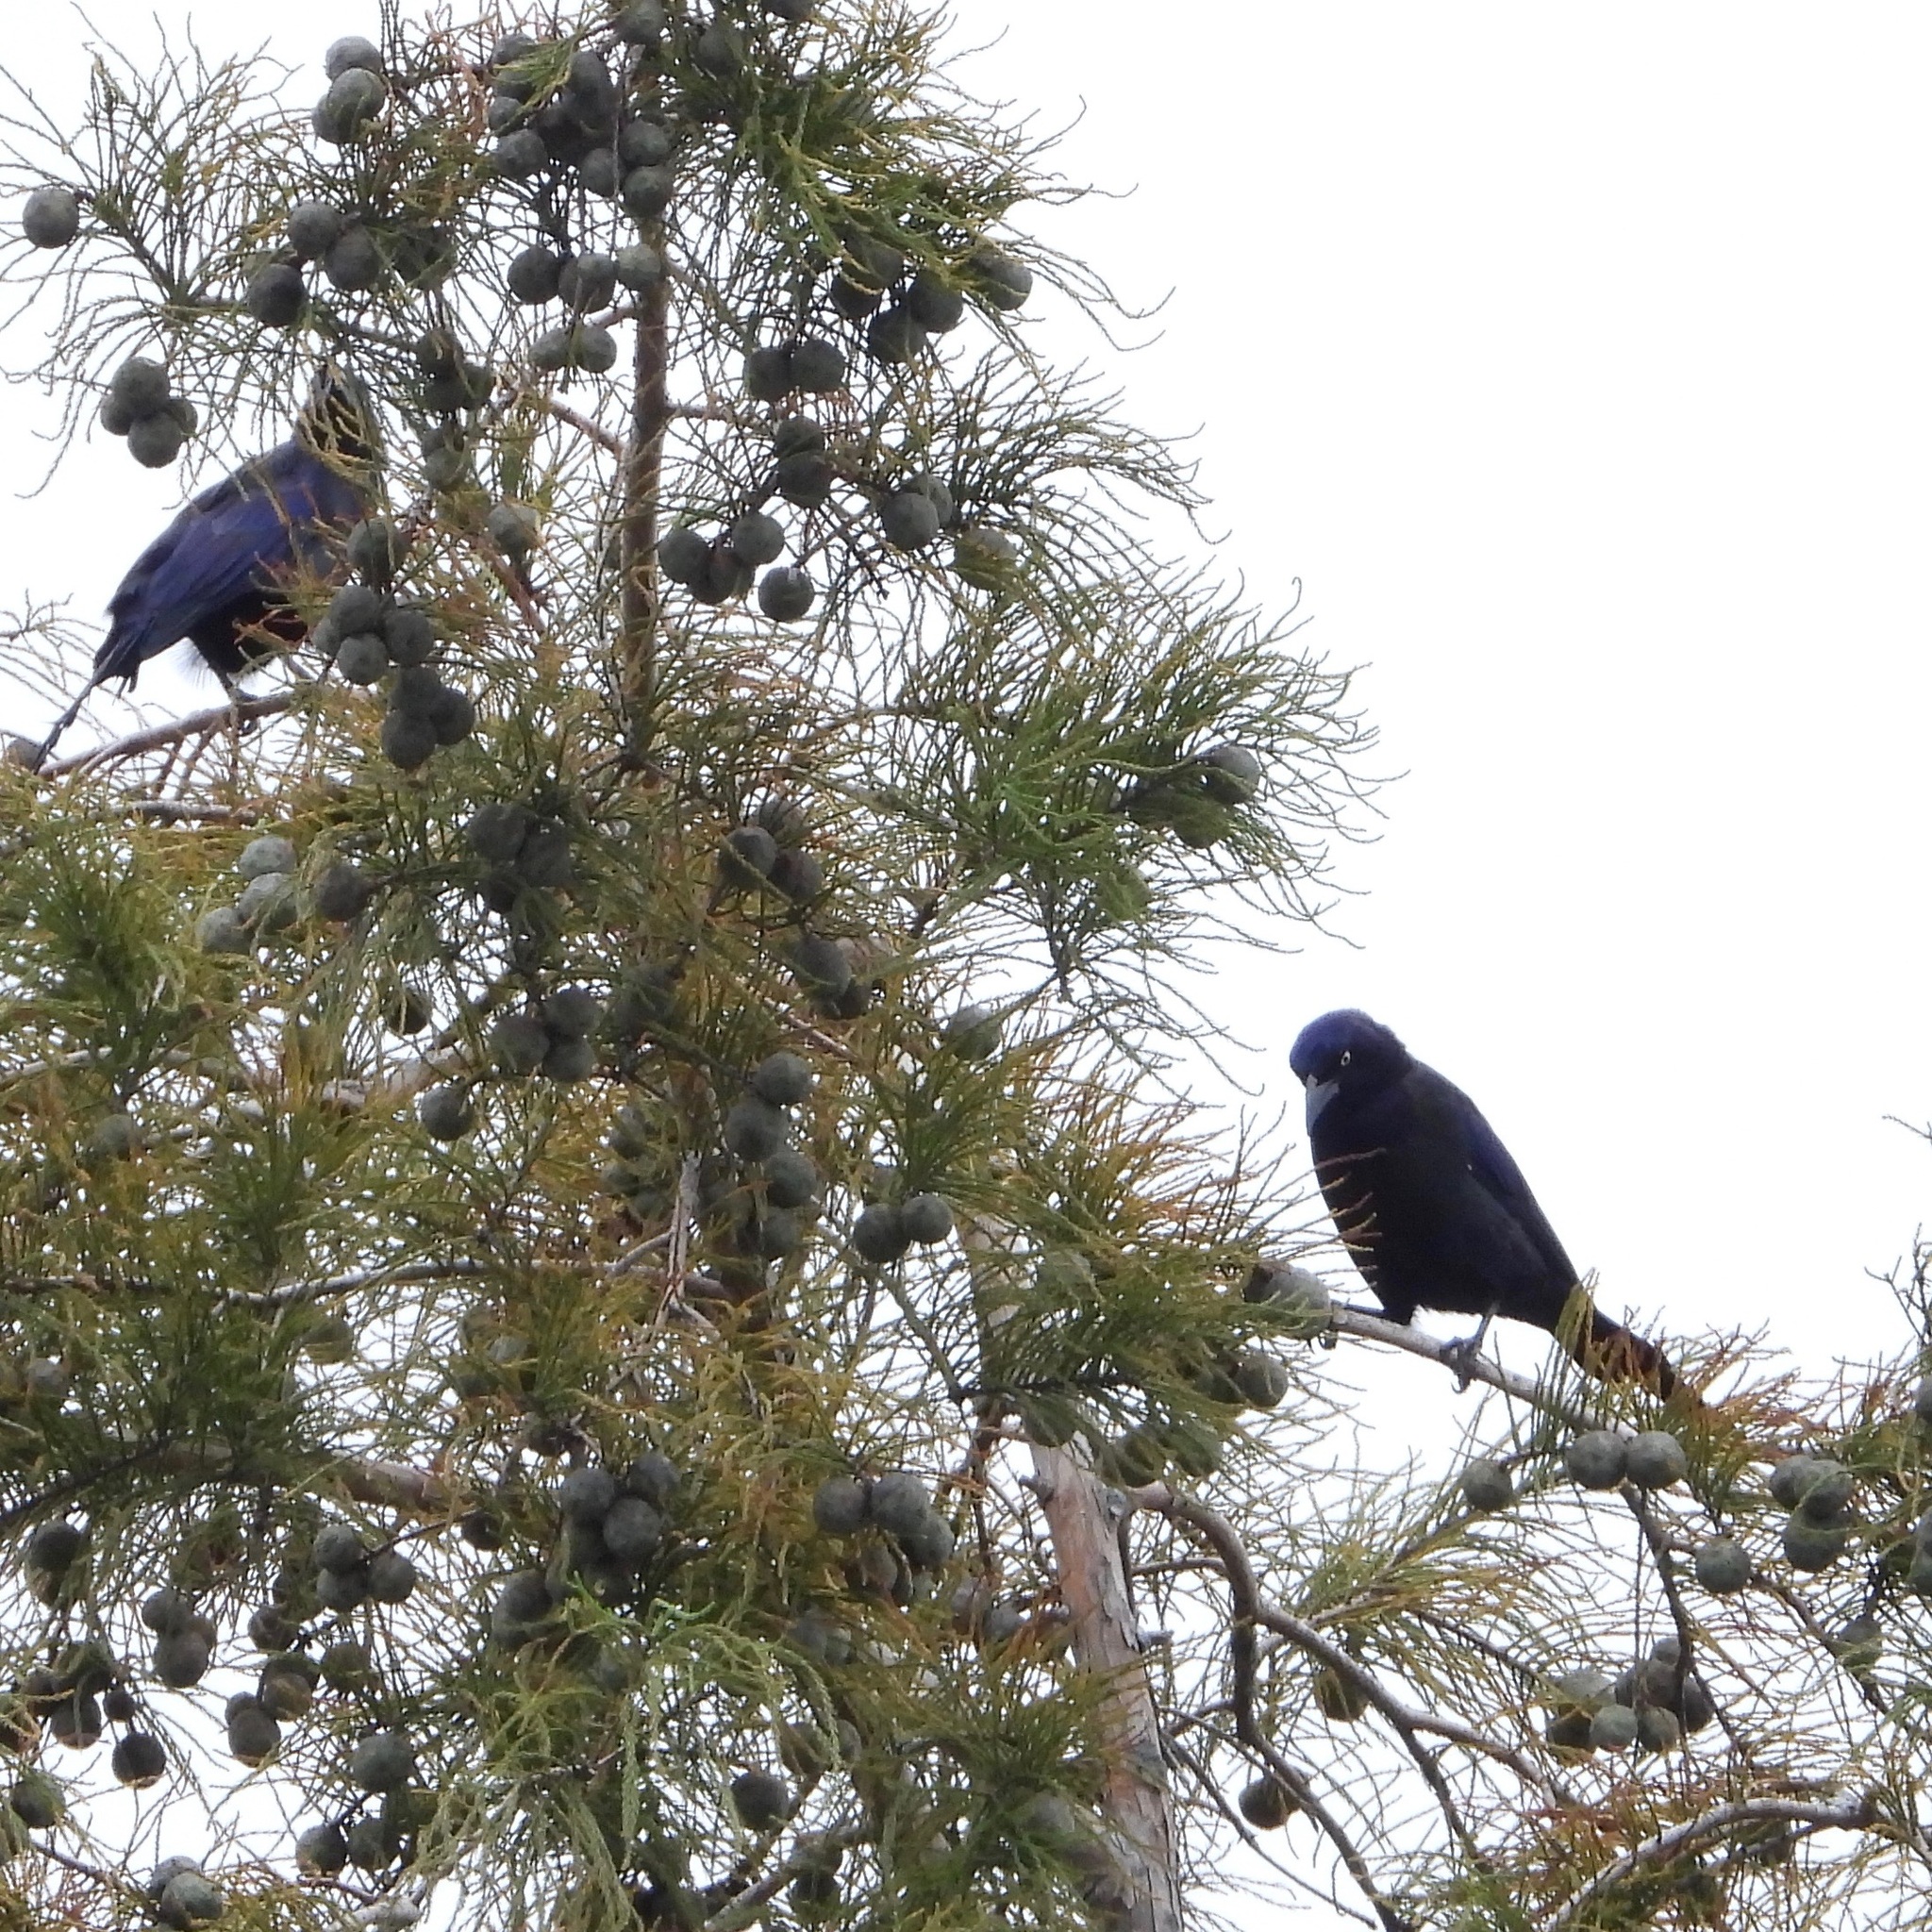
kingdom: Animalia
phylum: Chordata
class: Aves
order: Passeriformes
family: Icteridae
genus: Quiscalus
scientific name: Quiscalus quiscula
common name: Common grackle
